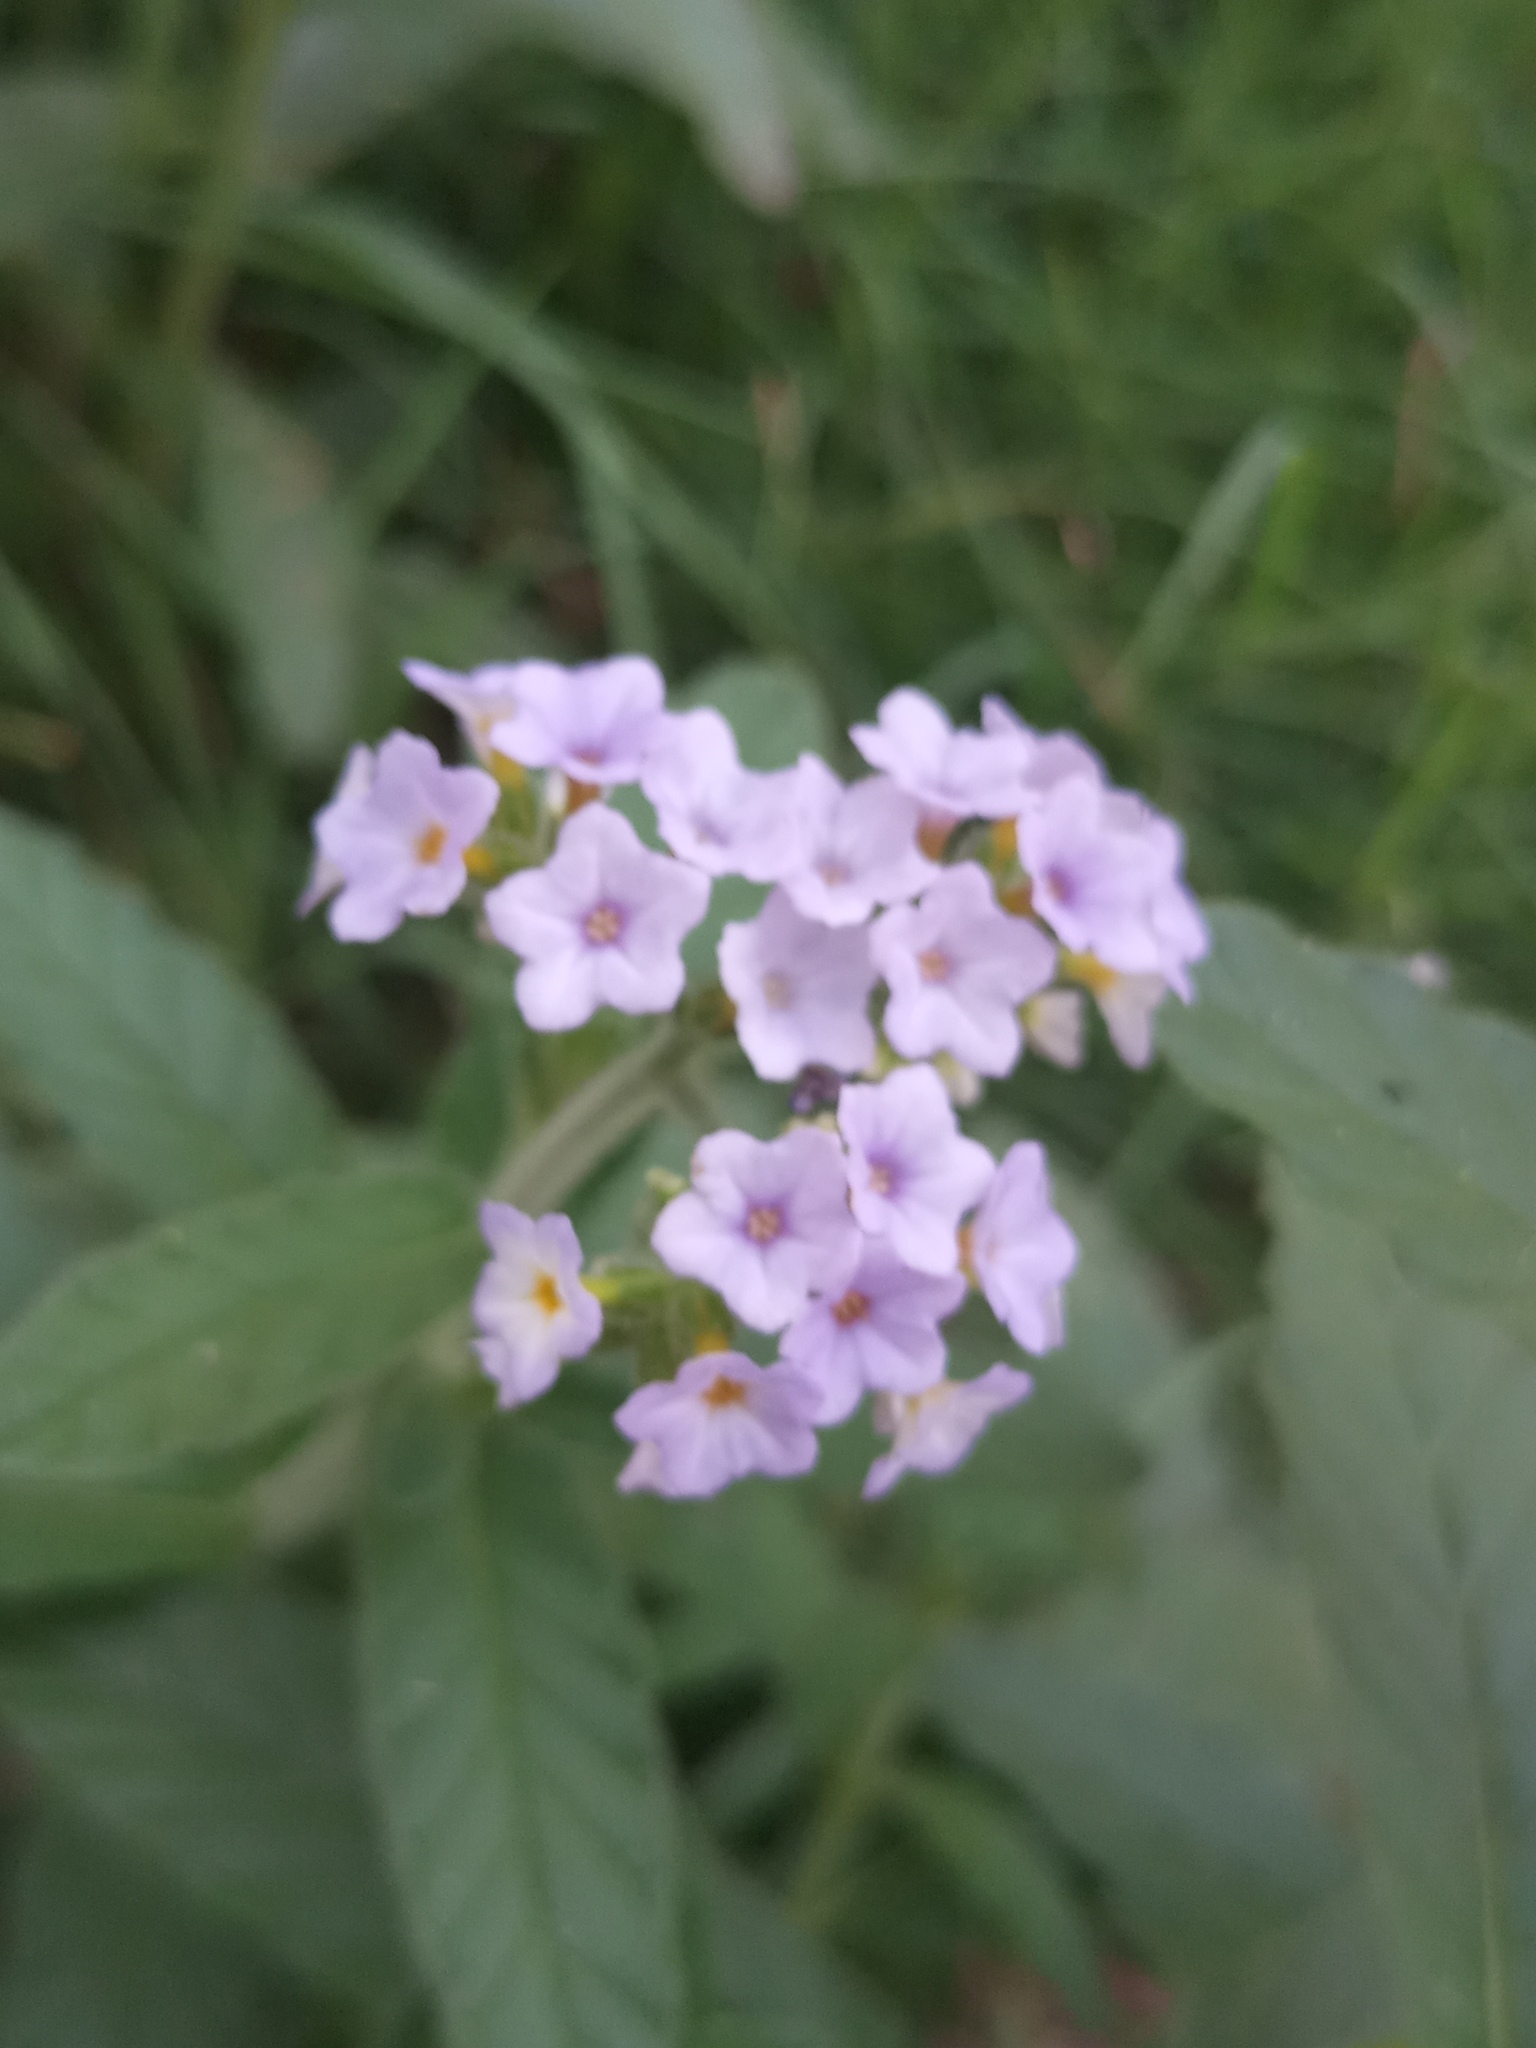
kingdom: Plantae
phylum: Tracheophyta
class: Magnoliopsida
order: Boraginales
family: Heliotropiaceae
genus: Heliotropium
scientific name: Heliotropium amplexicaule
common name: Clasping heliotrope
